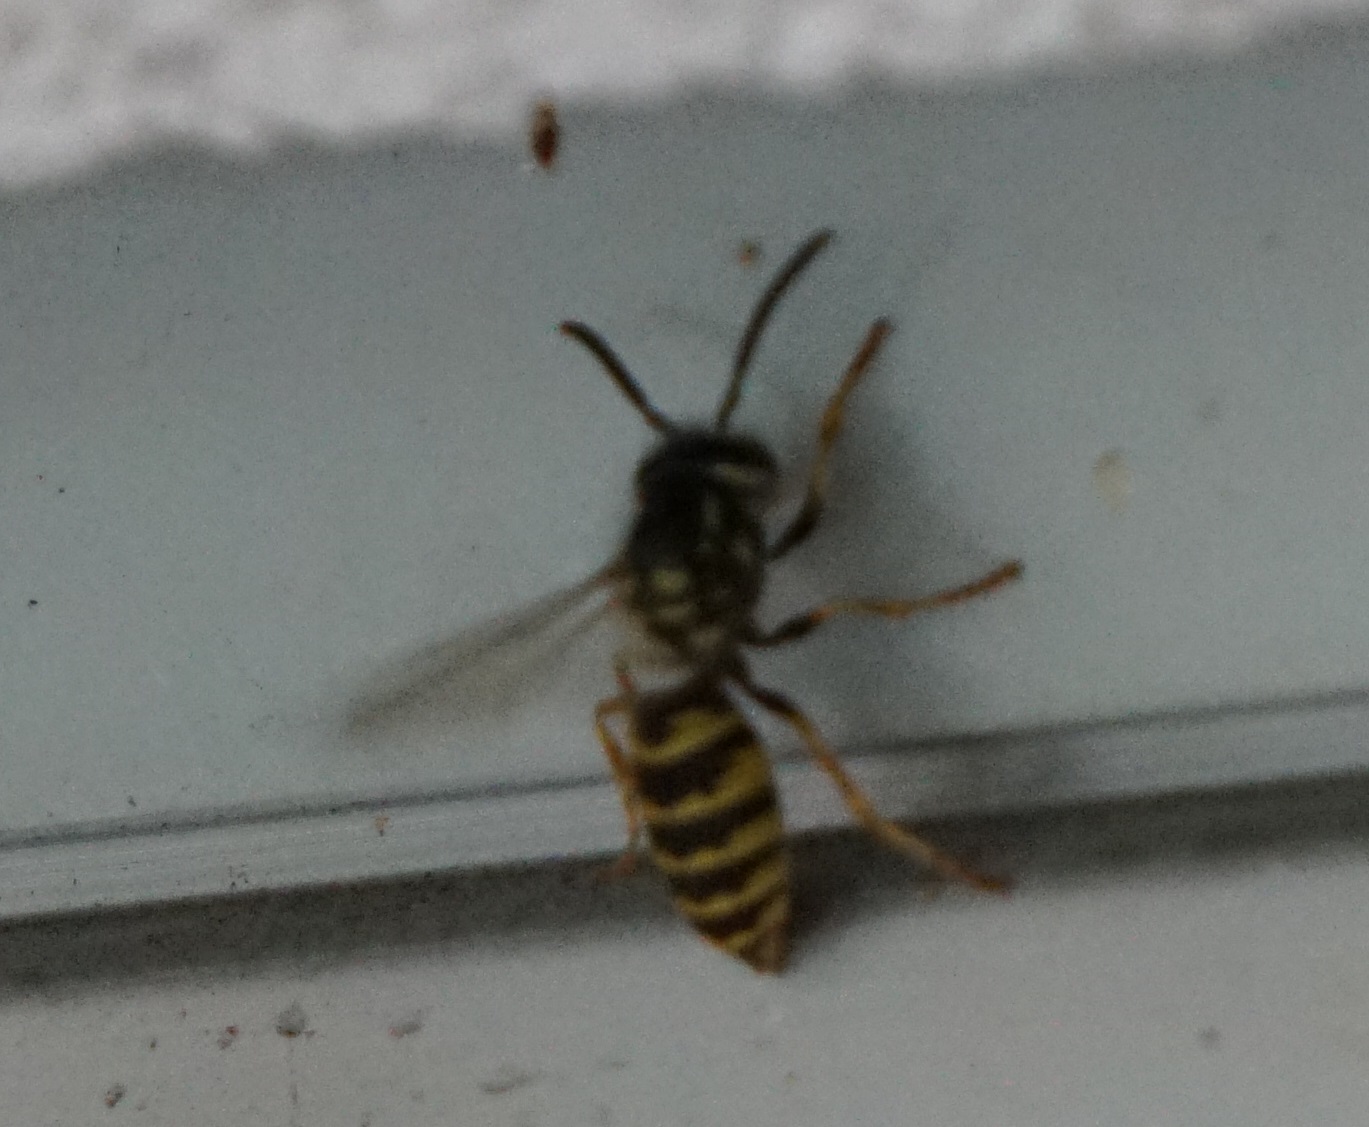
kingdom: Animalia
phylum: Arthropoda
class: Insecta
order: Hymenoptera
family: Vespidae
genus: Vespula
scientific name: Vespula vulgaris
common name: Common wasp
